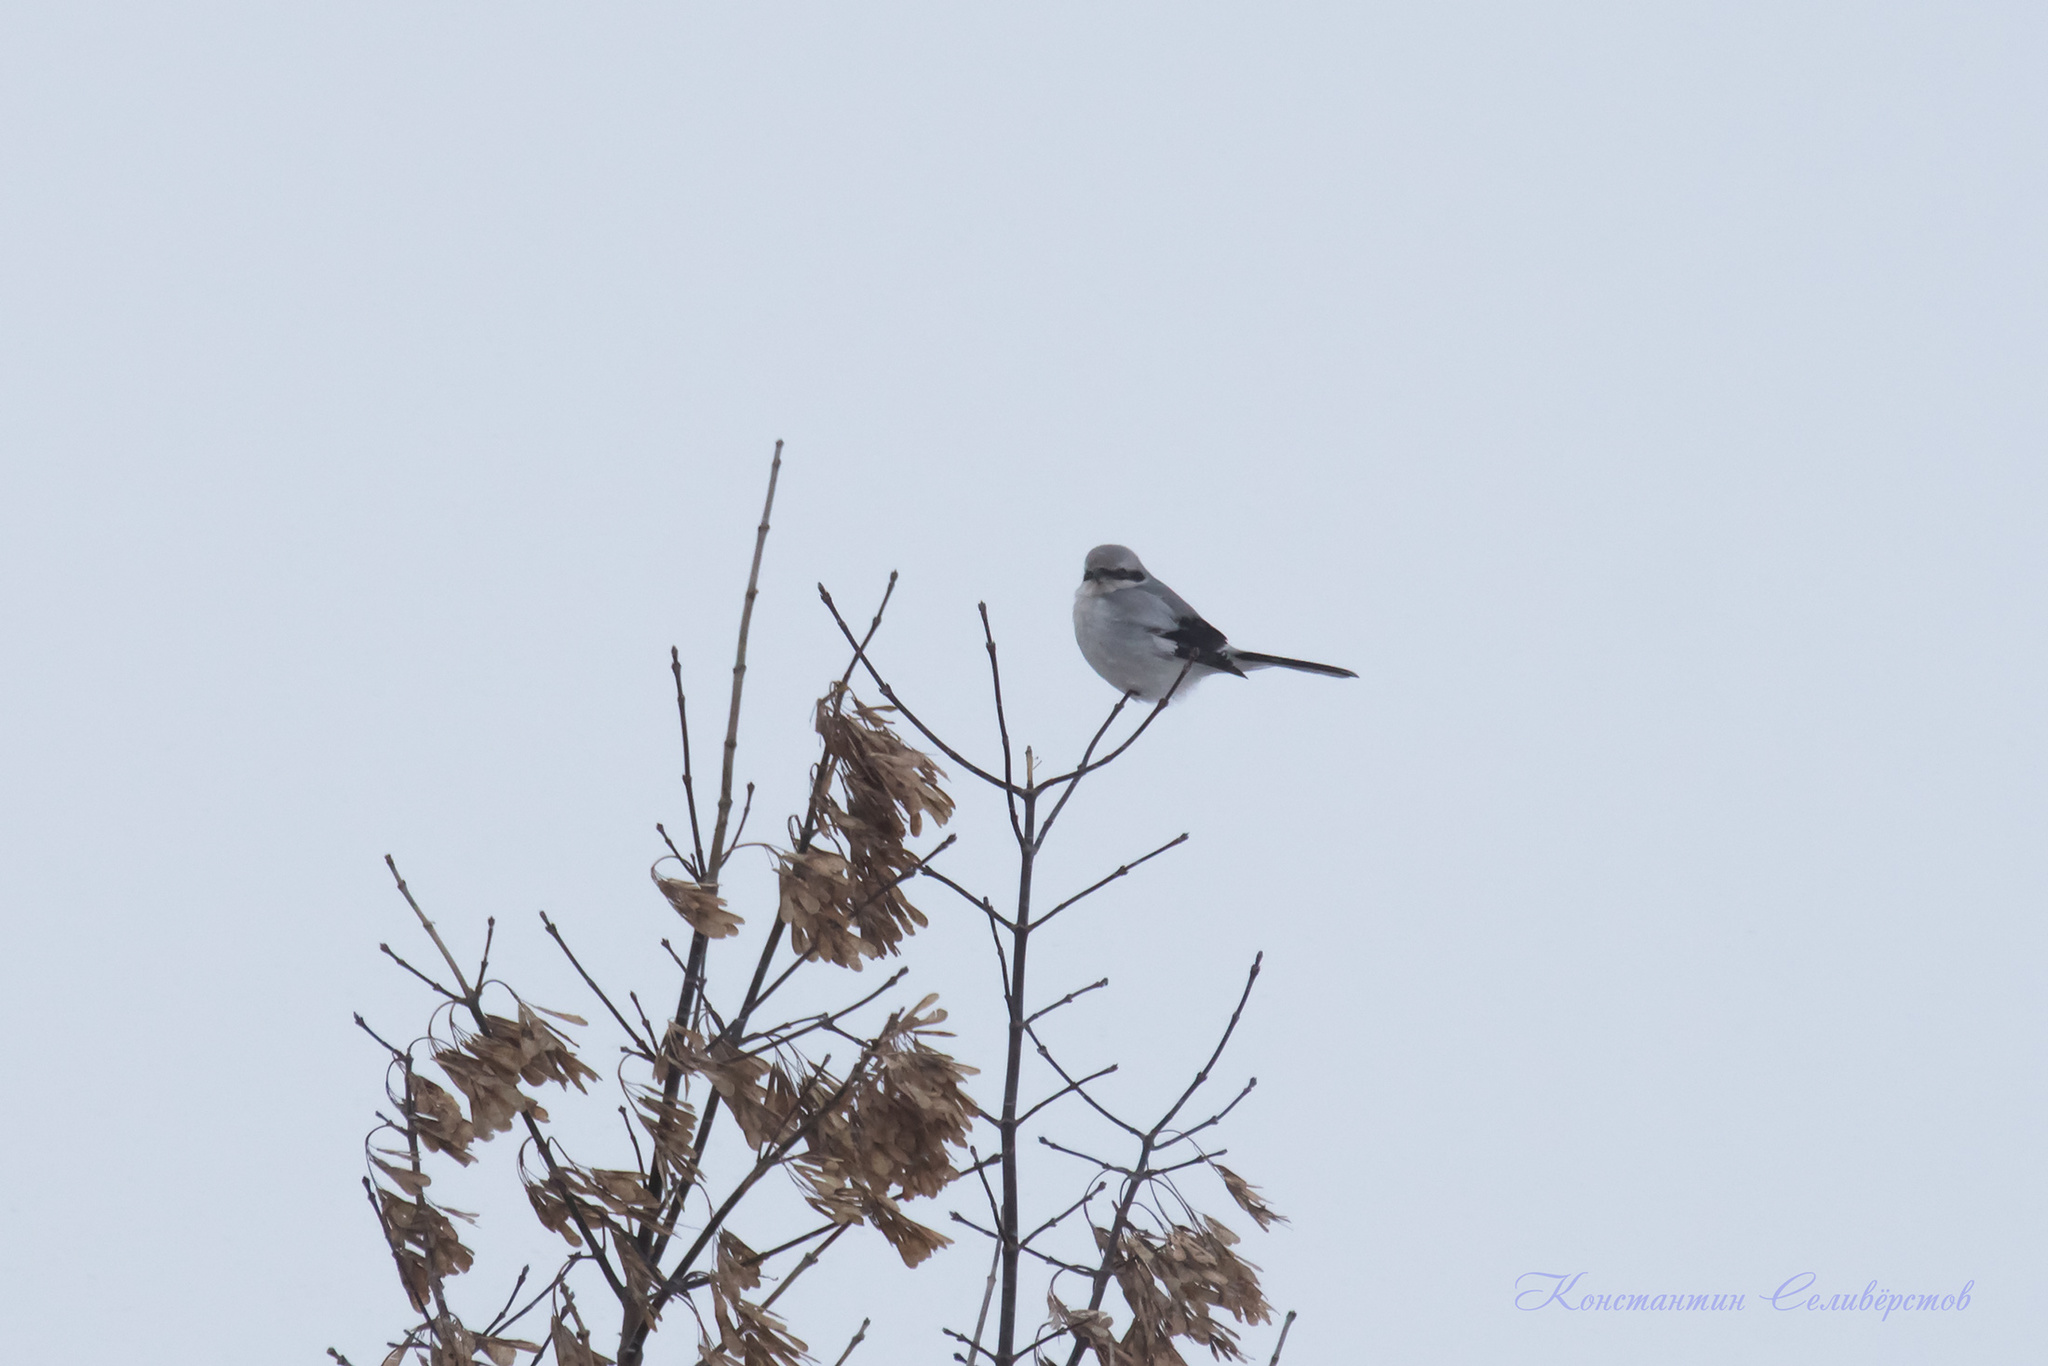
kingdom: Animalia
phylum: Chordata
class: Aves
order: Passeriformes
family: Laniidae
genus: Lanius
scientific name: Lanius excubitor
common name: Great grey shrike
